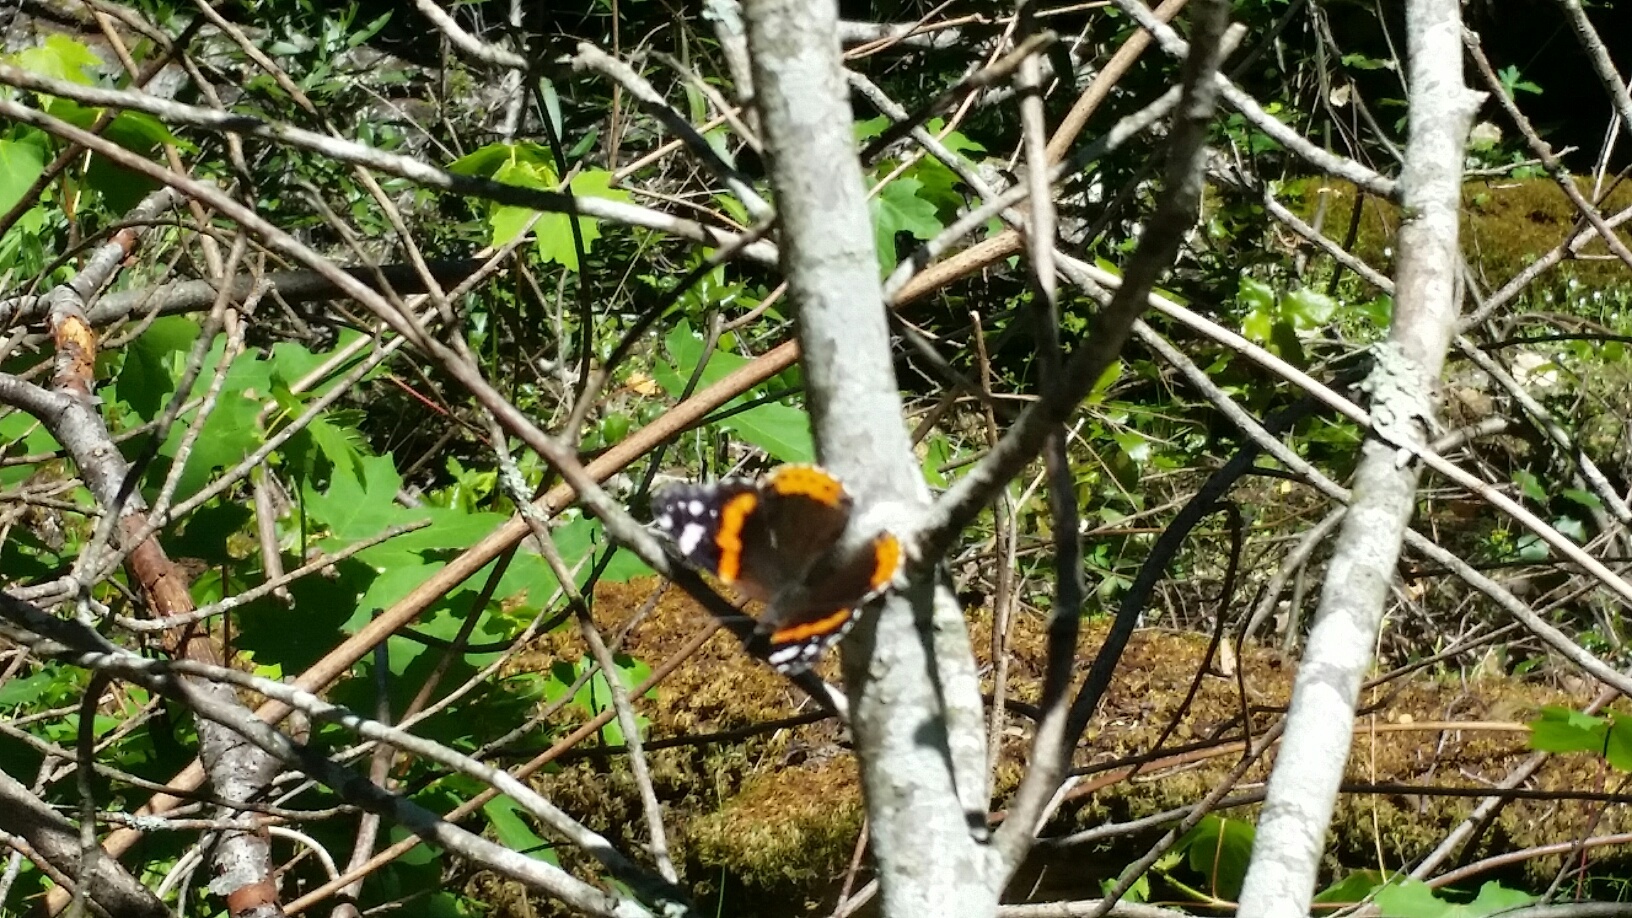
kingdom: Animalia
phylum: Arthropoda
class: Insecta
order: Lepidoptera
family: Nymphalidae
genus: Vanessa
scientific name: Vanessa atalanta
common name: Red admiral
